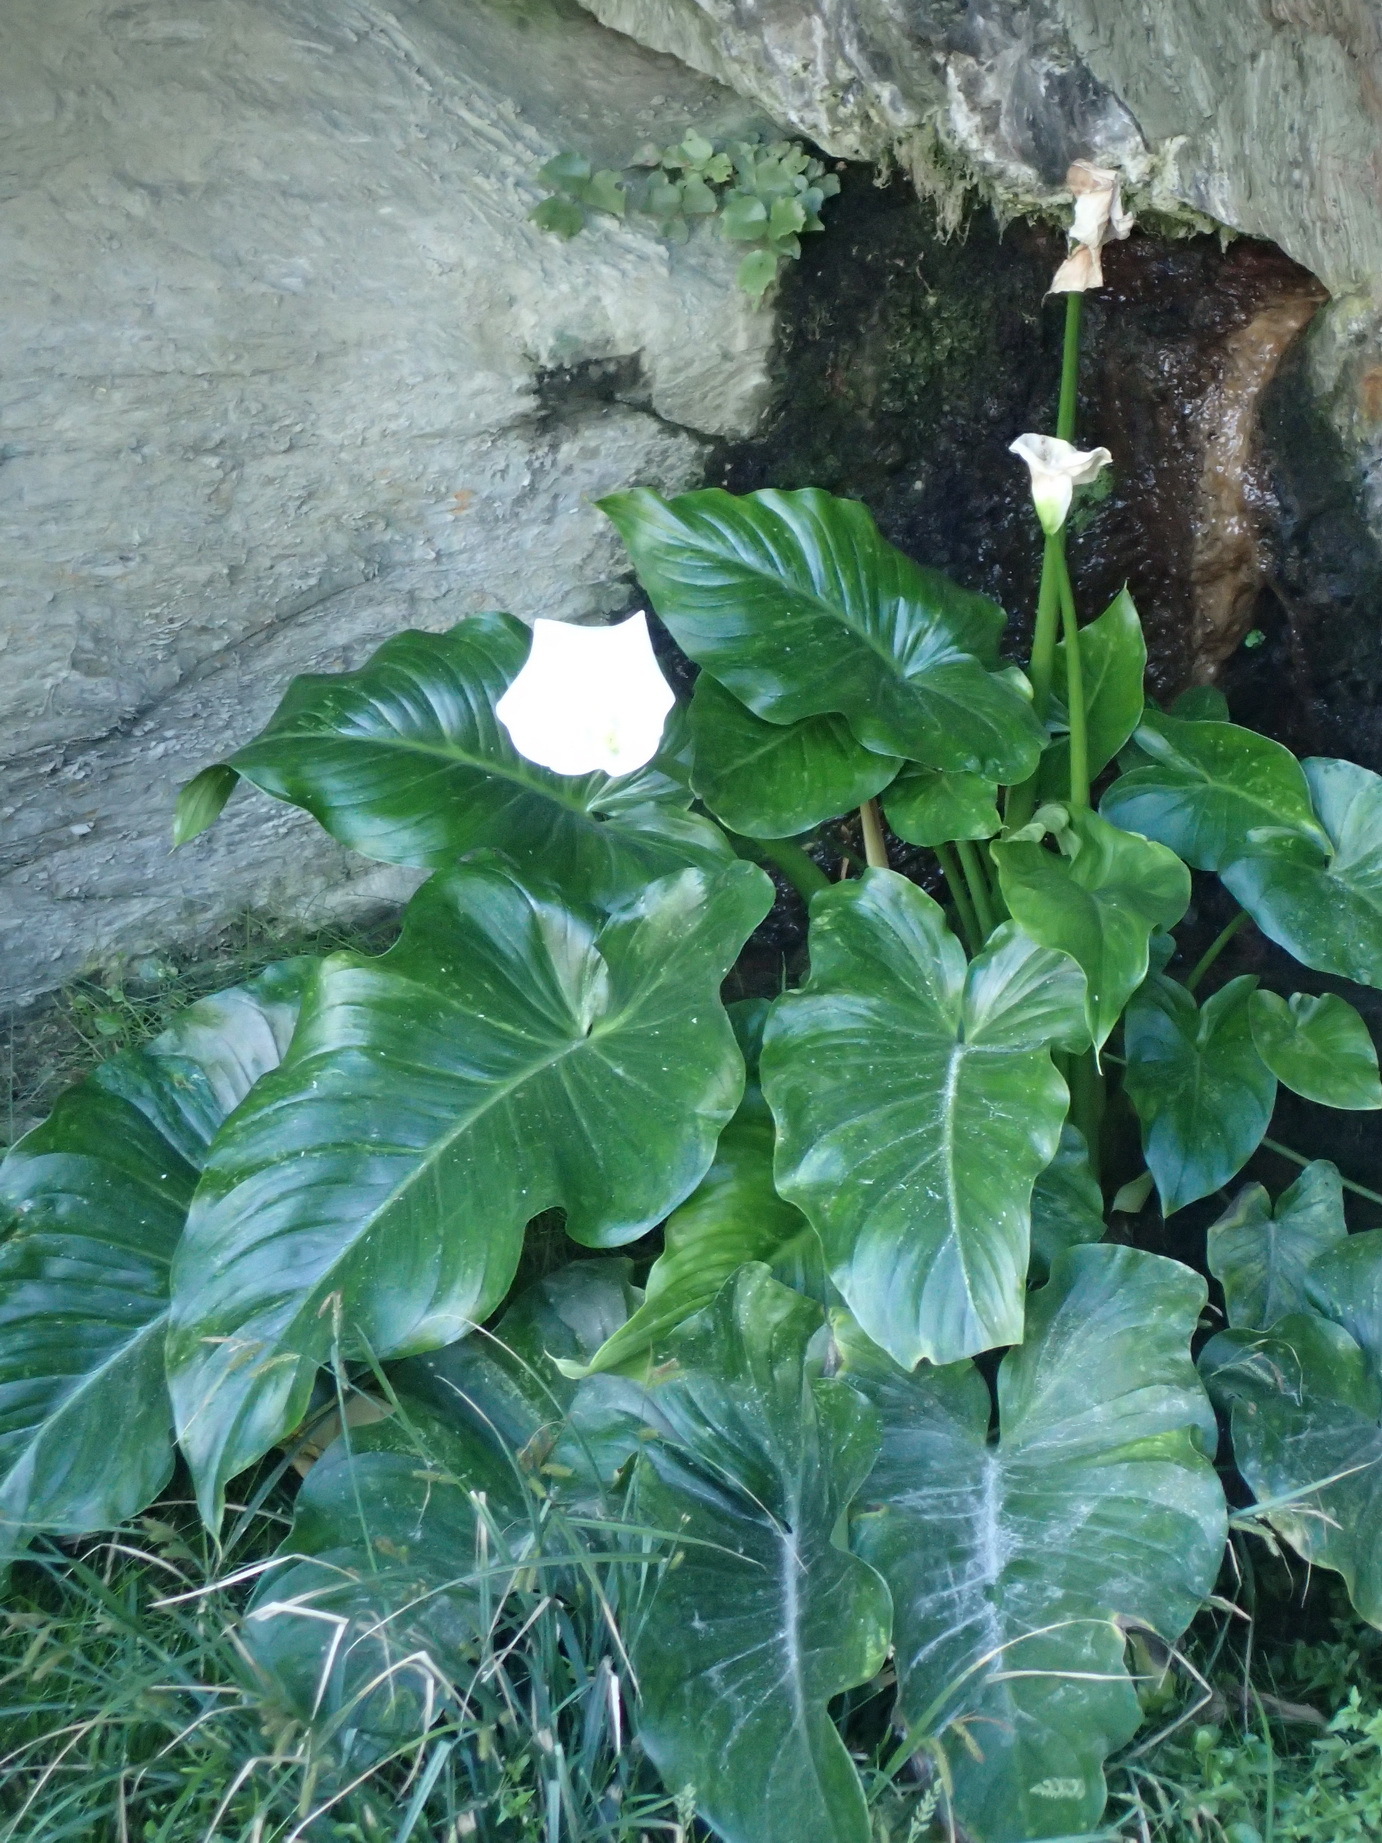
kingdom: Plantae
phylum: Tracheophyta
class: Liliopsida
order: Alismatales
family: Araceae
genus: Zantedeschia
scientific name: Zantedeschia aethiopica
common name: Altar-lily
